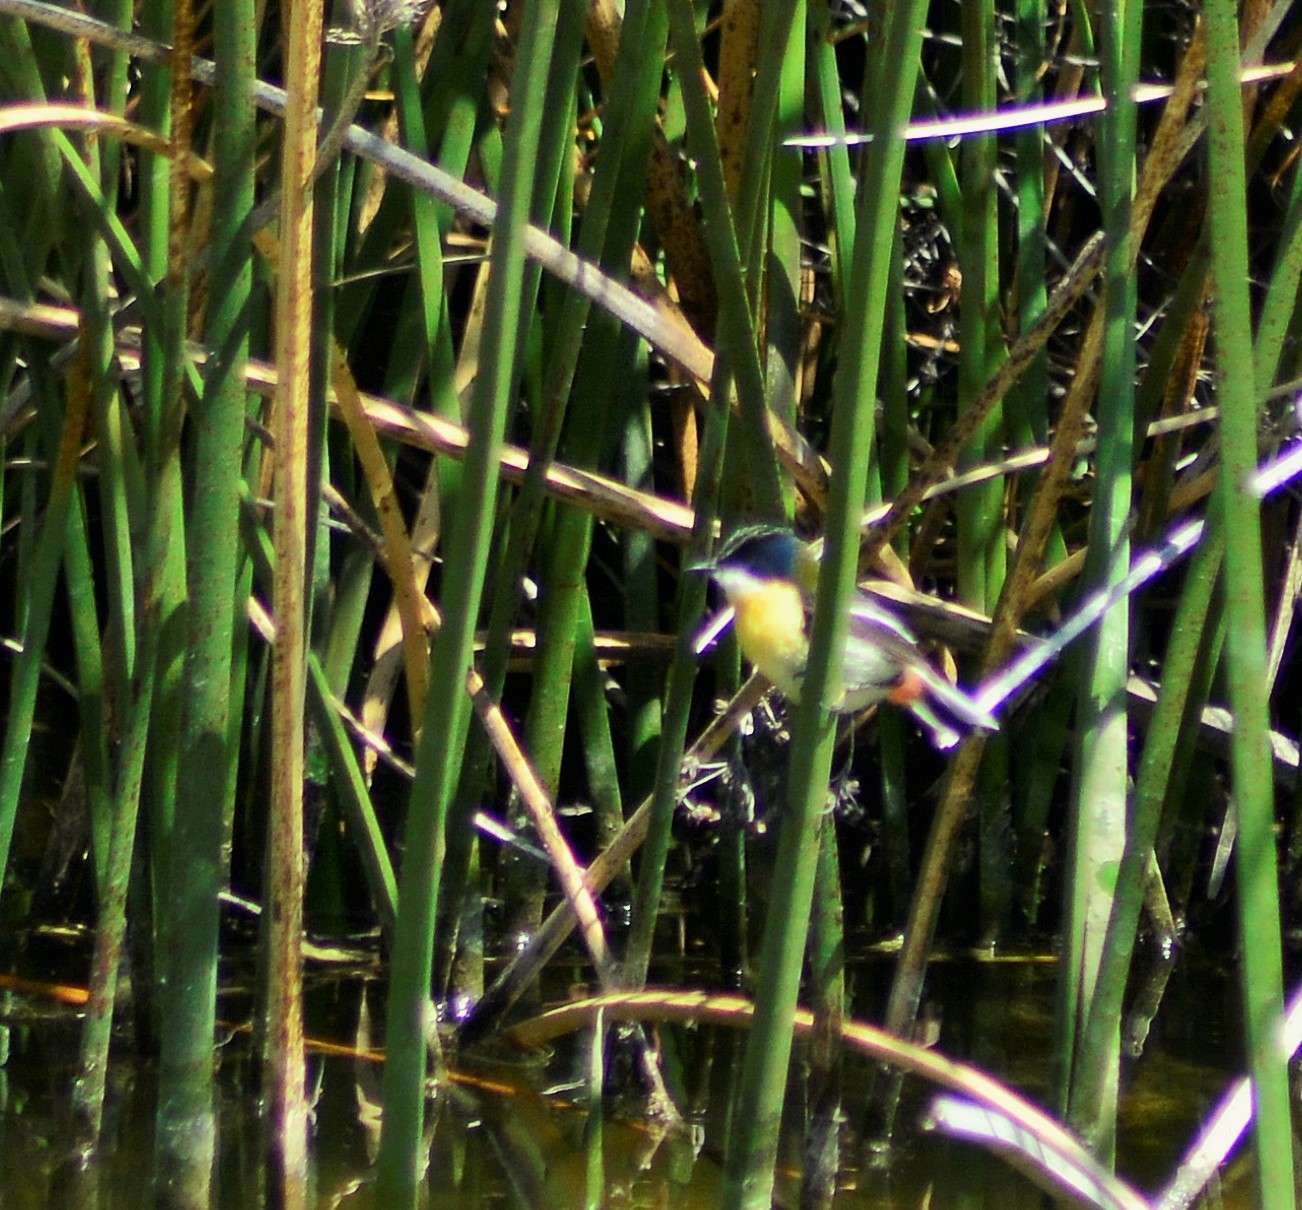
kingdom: Animalia
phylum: Chordata
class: Aves
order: Passeriformes
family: Tyrannidae
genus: Tachuris
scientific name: Tachuris rubrigastra
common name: Many-colored rush tyrant
